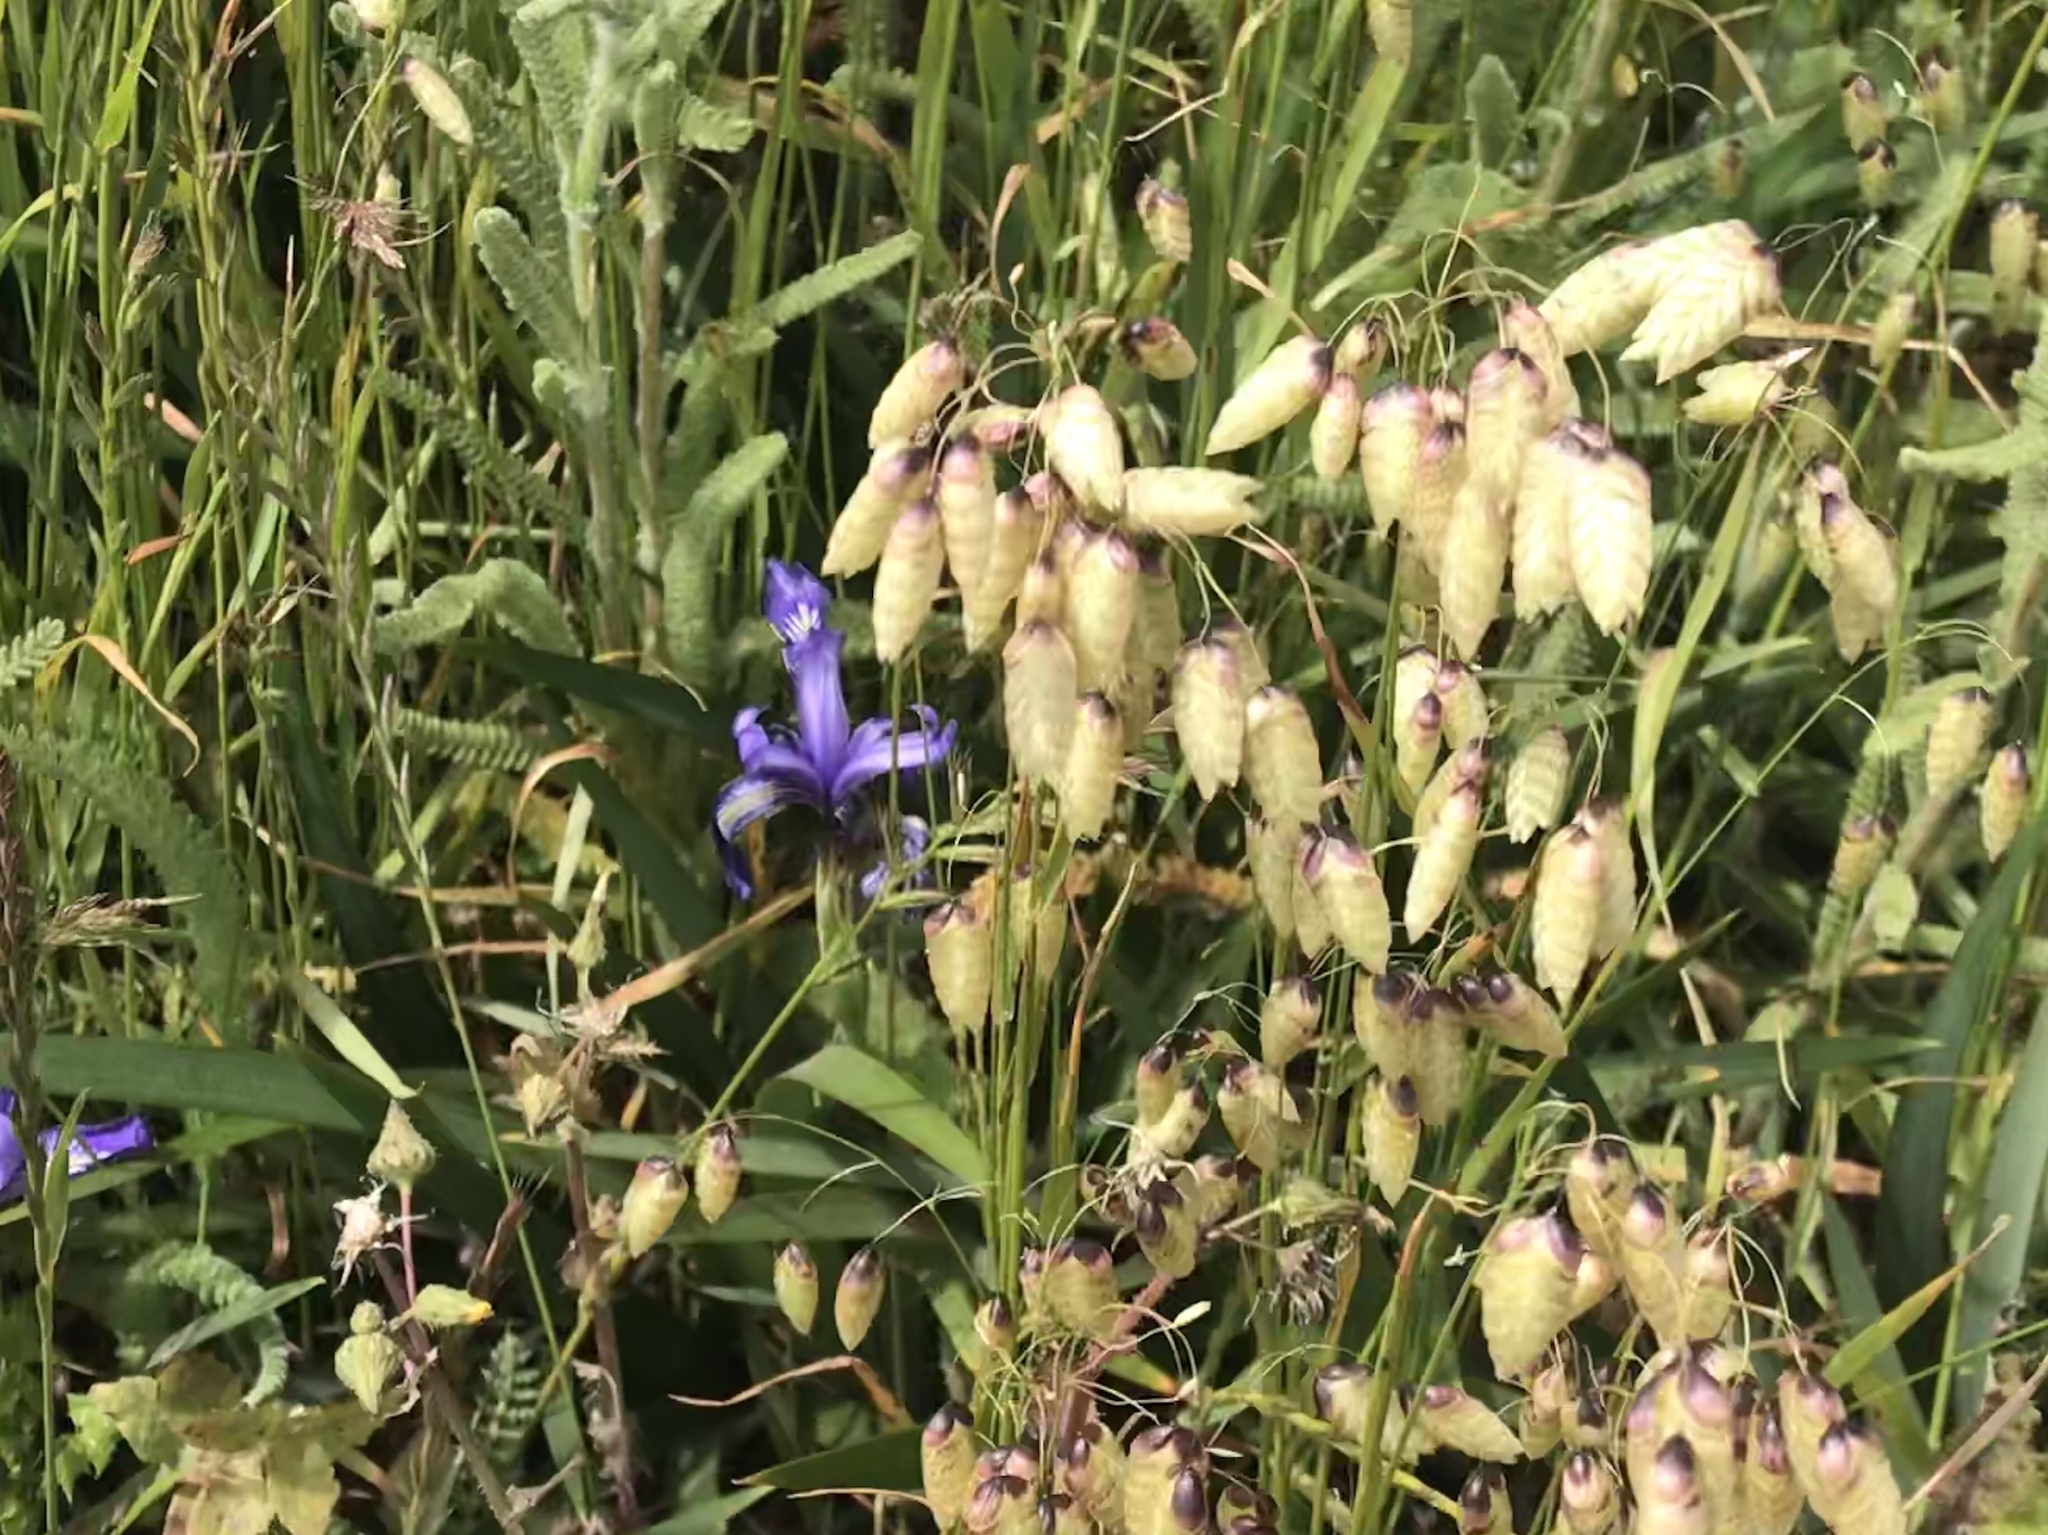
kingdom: Plantae
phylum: Tracheophyta
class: Liliopsida
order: Poales
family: Poaceae
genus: Briza
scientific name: Briza maxima
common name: Big quakinggrass
